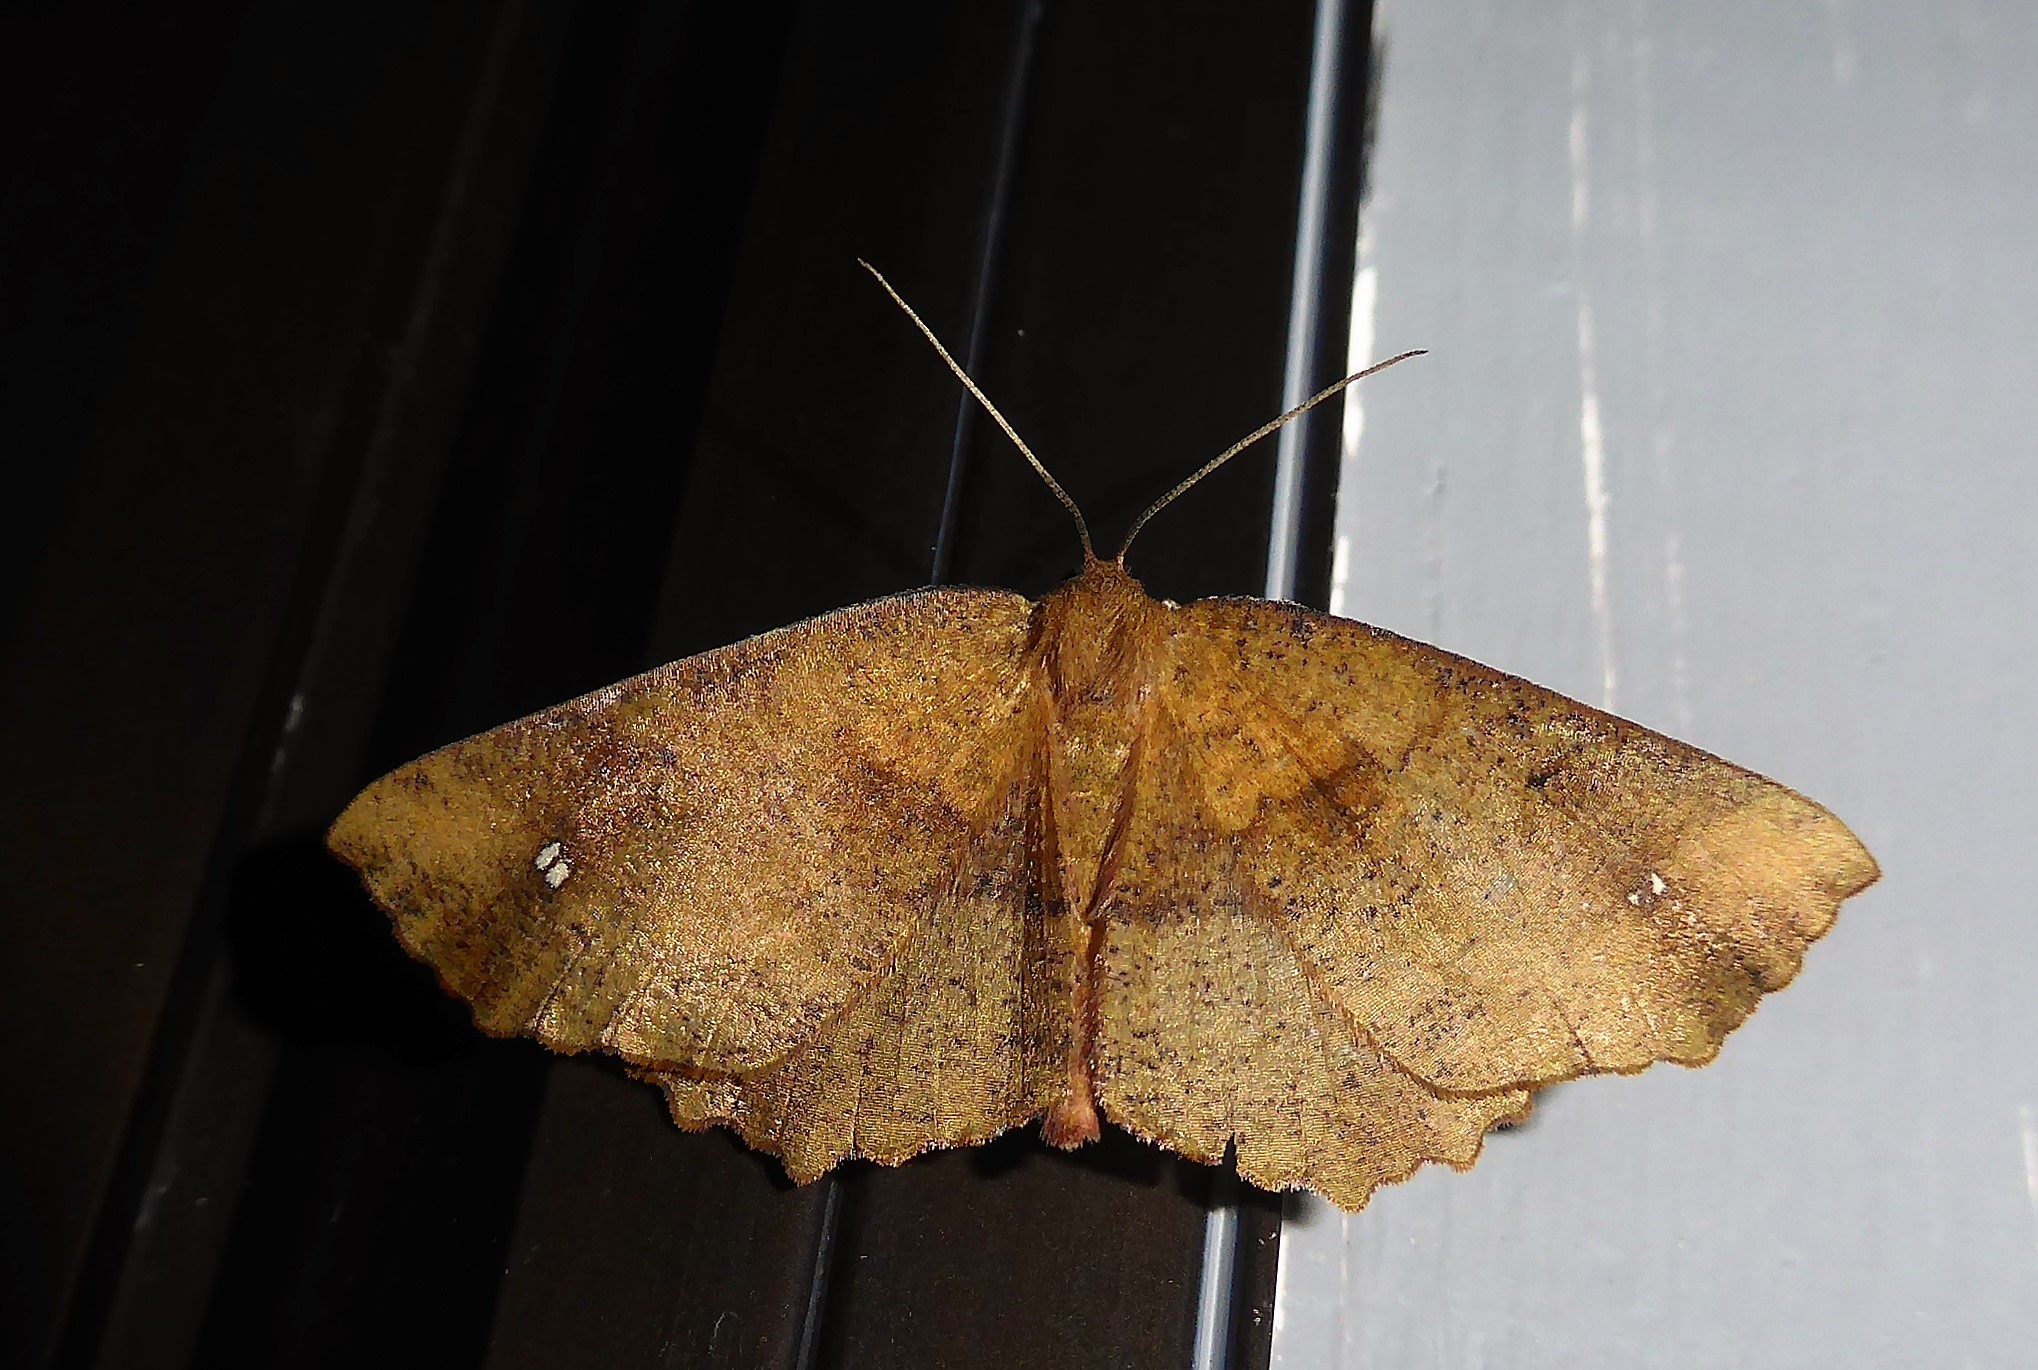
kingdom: Animalia
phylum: Arthropoda
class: Insecta
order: Lepidoptera
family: Geometridae
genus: Xyridacma
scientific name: Xyridacma ustaria
